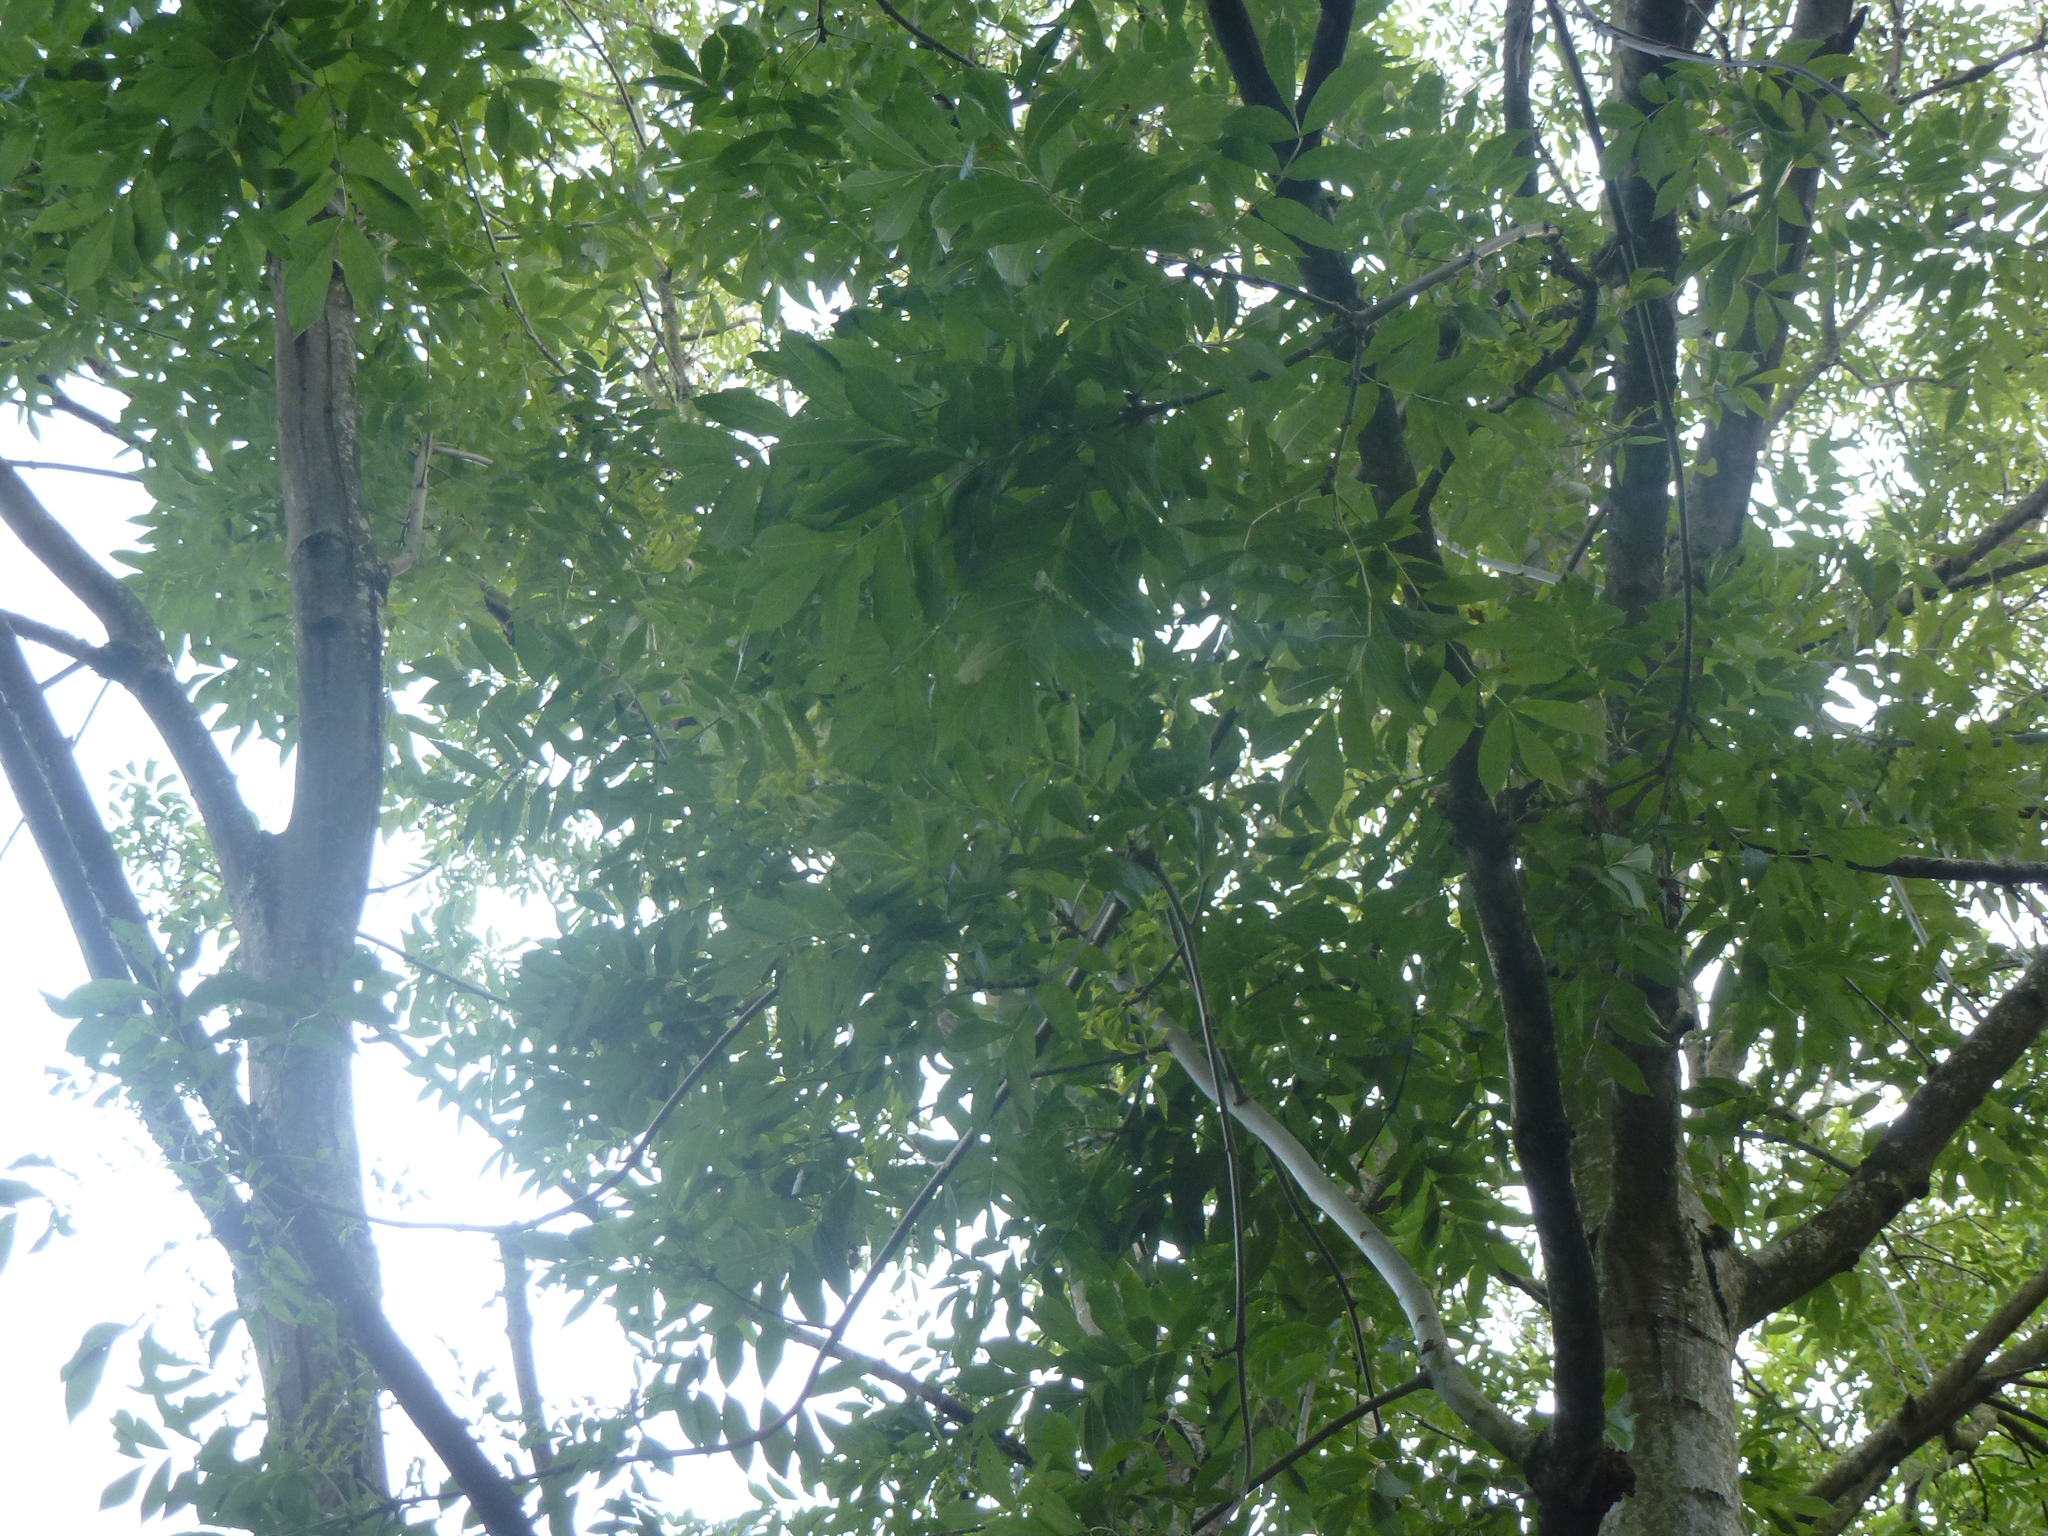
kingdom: Plantae
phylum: Tracheophyta
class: Magnoliopsida
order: Lamiales
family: Oleaceae
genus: Fraxinus
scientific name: Fraxinus excelsior
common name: European ash
